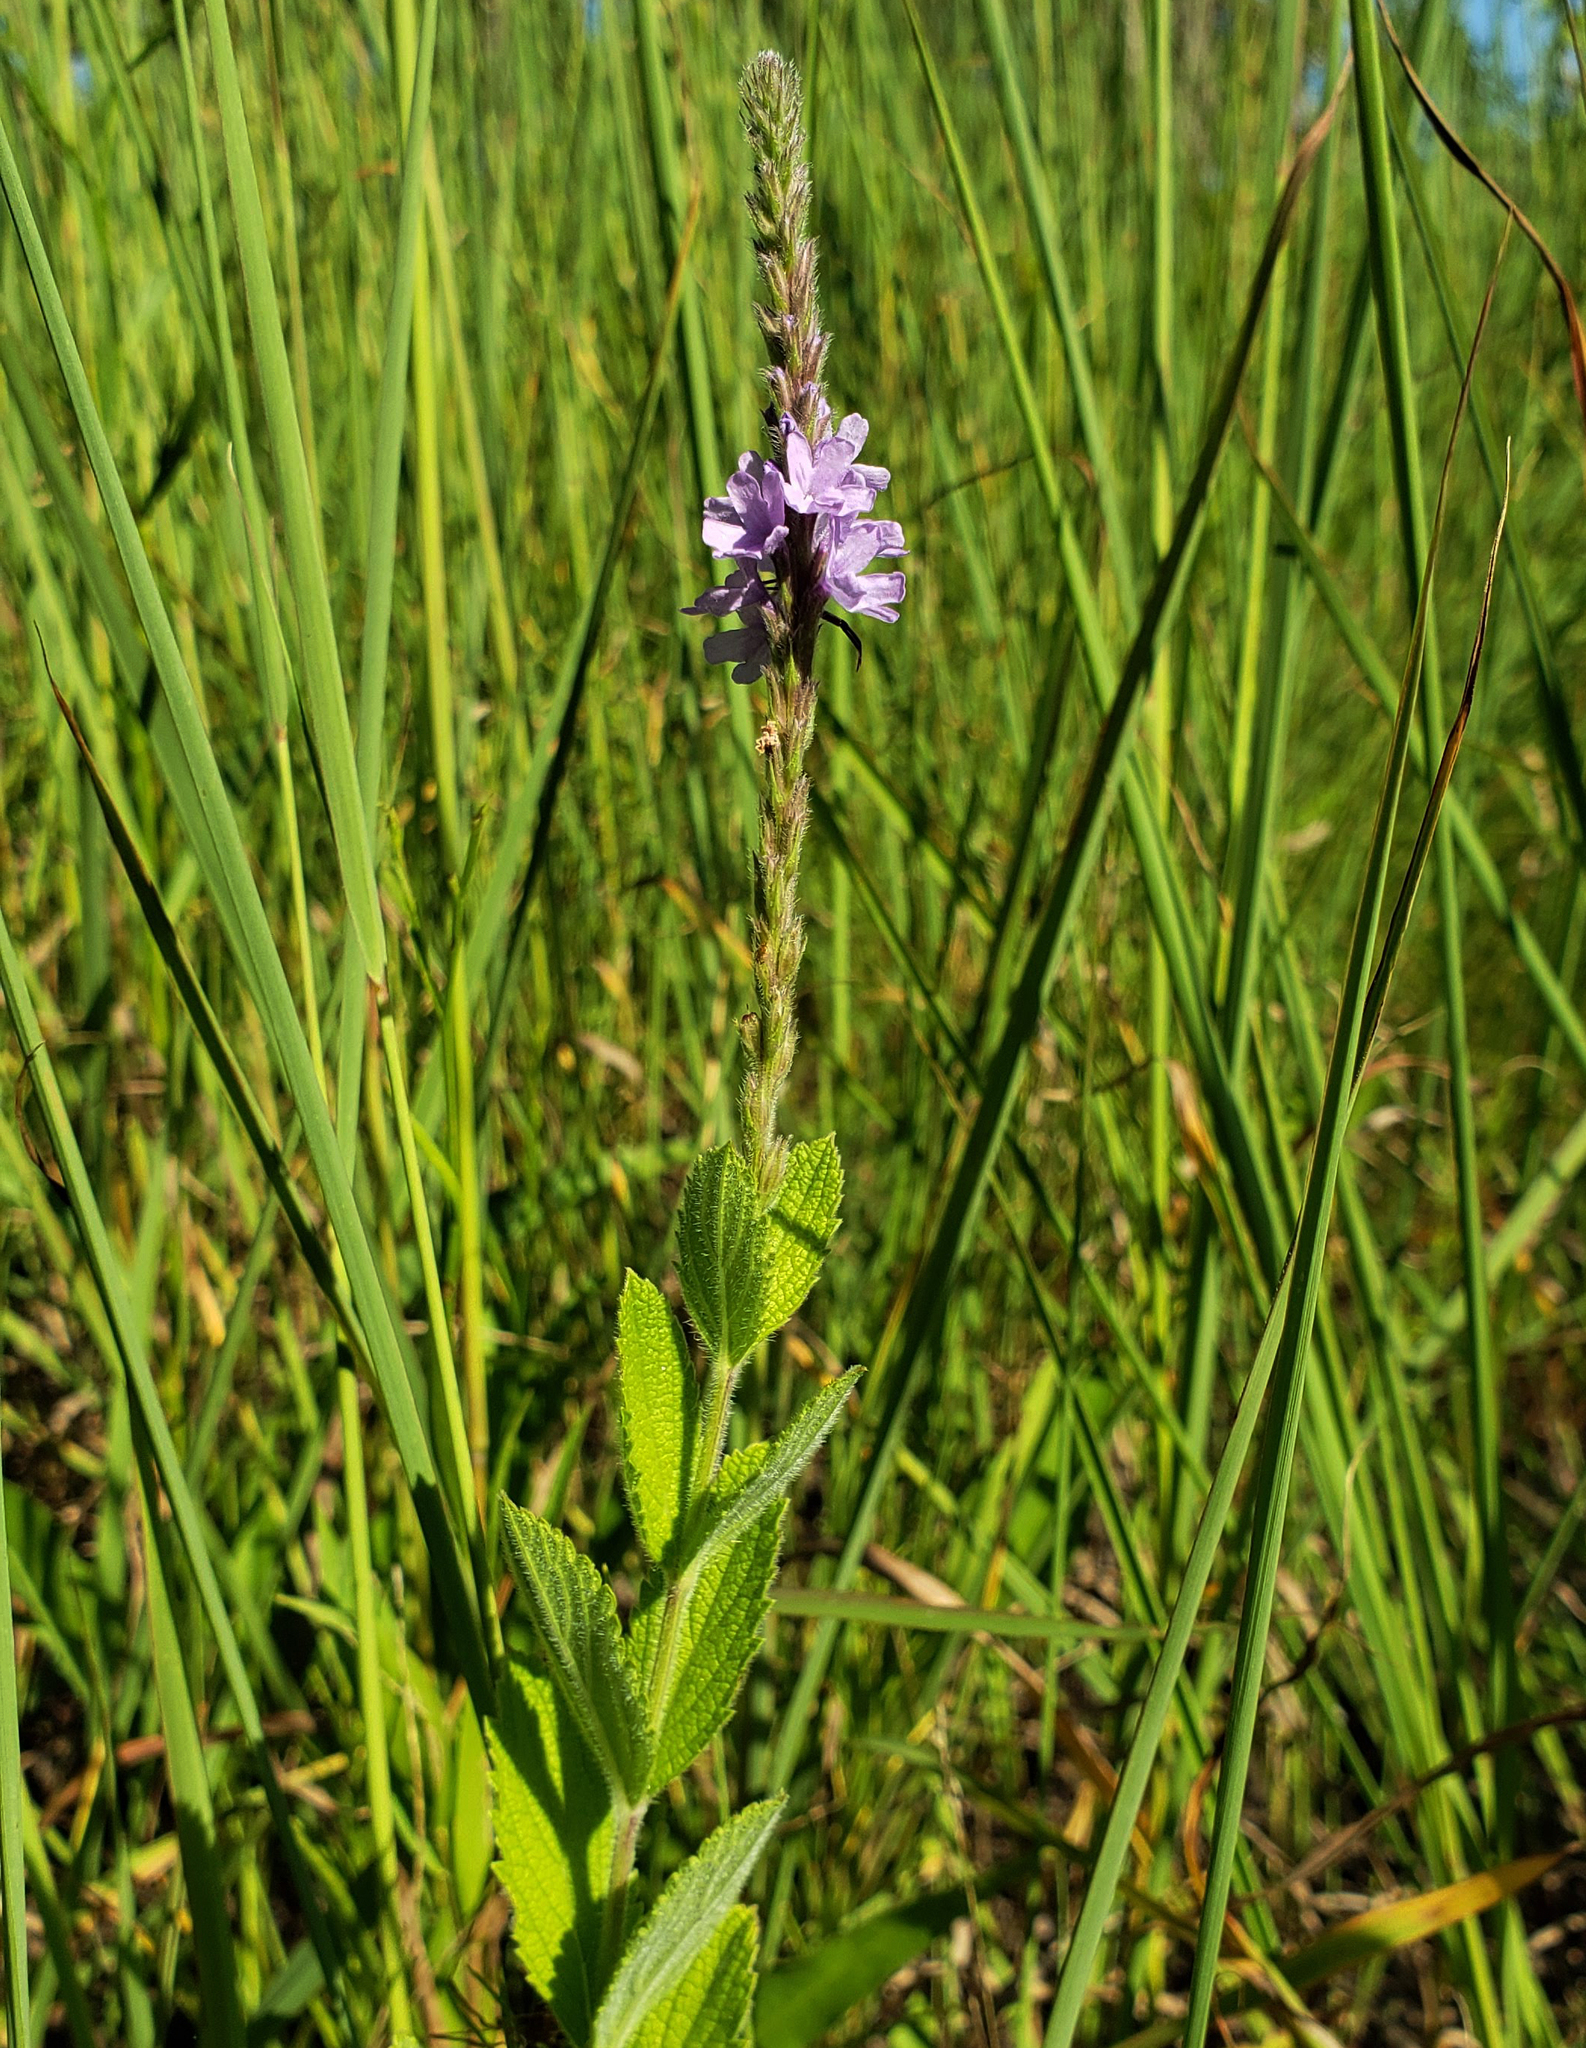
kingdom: Plantae
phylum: Tracheophyta
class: Magnoliopsida
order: Lamiales
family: Verbenaceae
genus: Verbena
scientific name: Verbena stricta
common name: Hoary vervain
